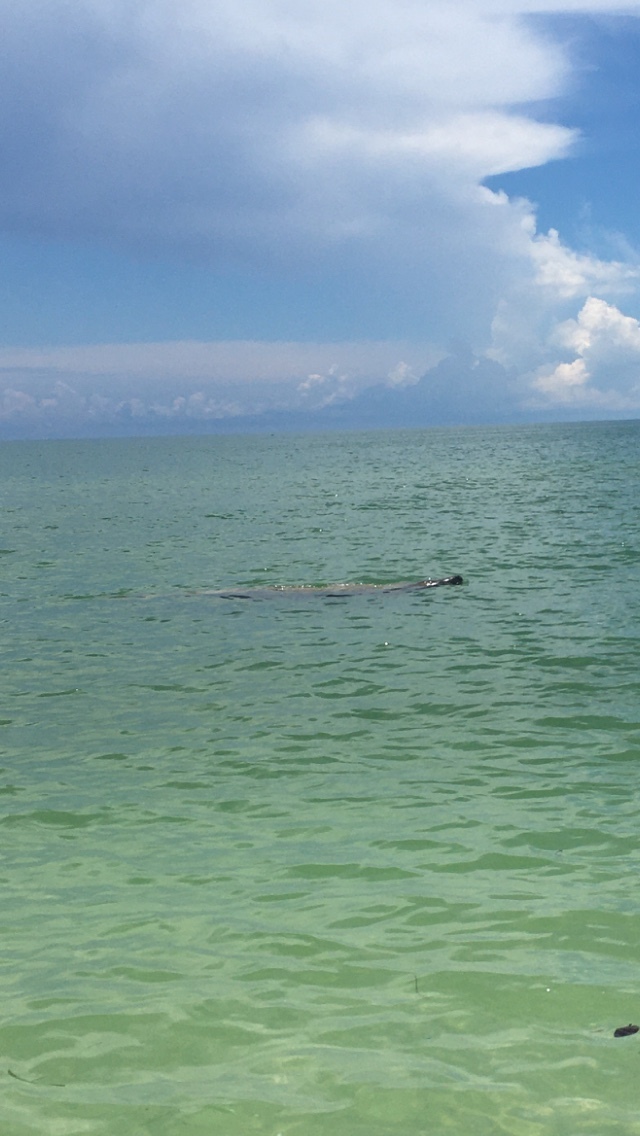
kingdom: Animalia
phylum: Chordata
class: Mammalia
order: Sirenia
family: Trichechidae
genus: Trichechus
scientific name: Trichechus manatus
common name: West indian manatee
